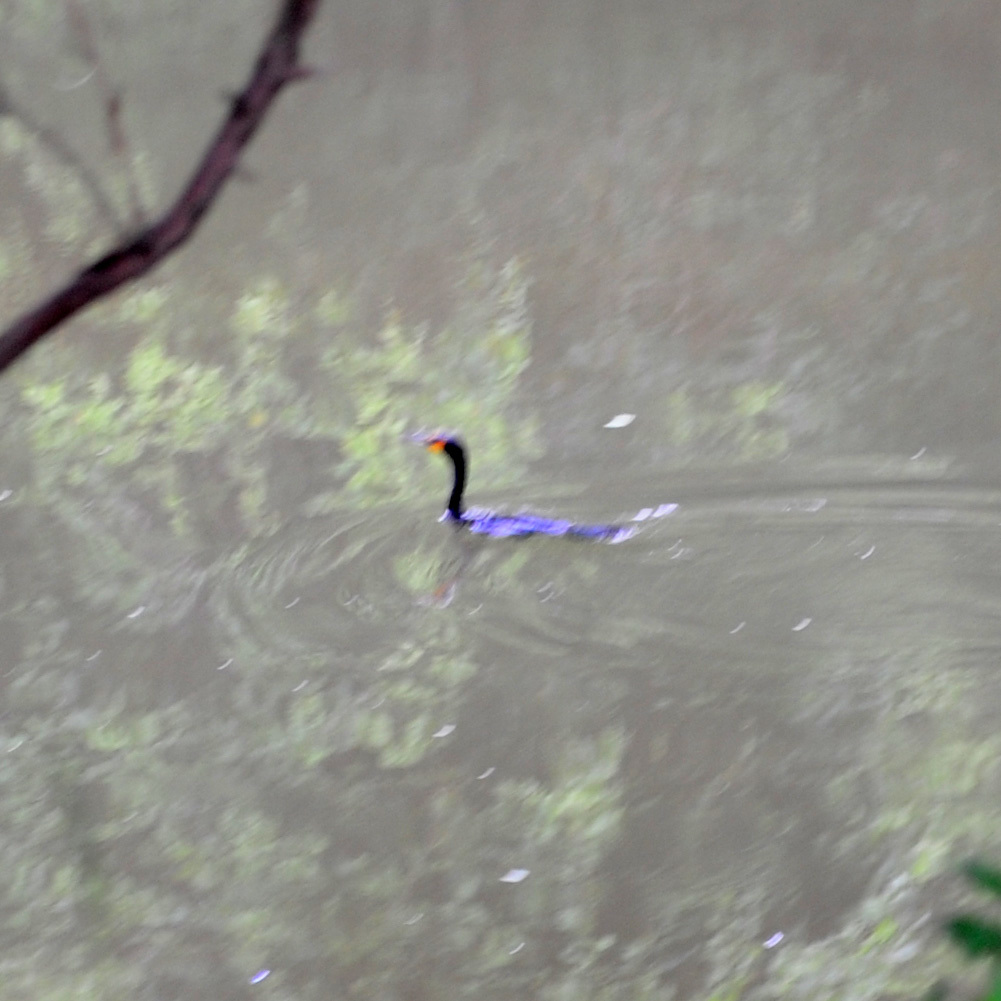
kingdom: Animalia
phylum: Chordata
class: Aves
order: Suliformes
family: Phalacrocoracidae
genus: Phalacrocorax
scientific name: Phalacrocorax auritus
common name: Double-crested cormorant
